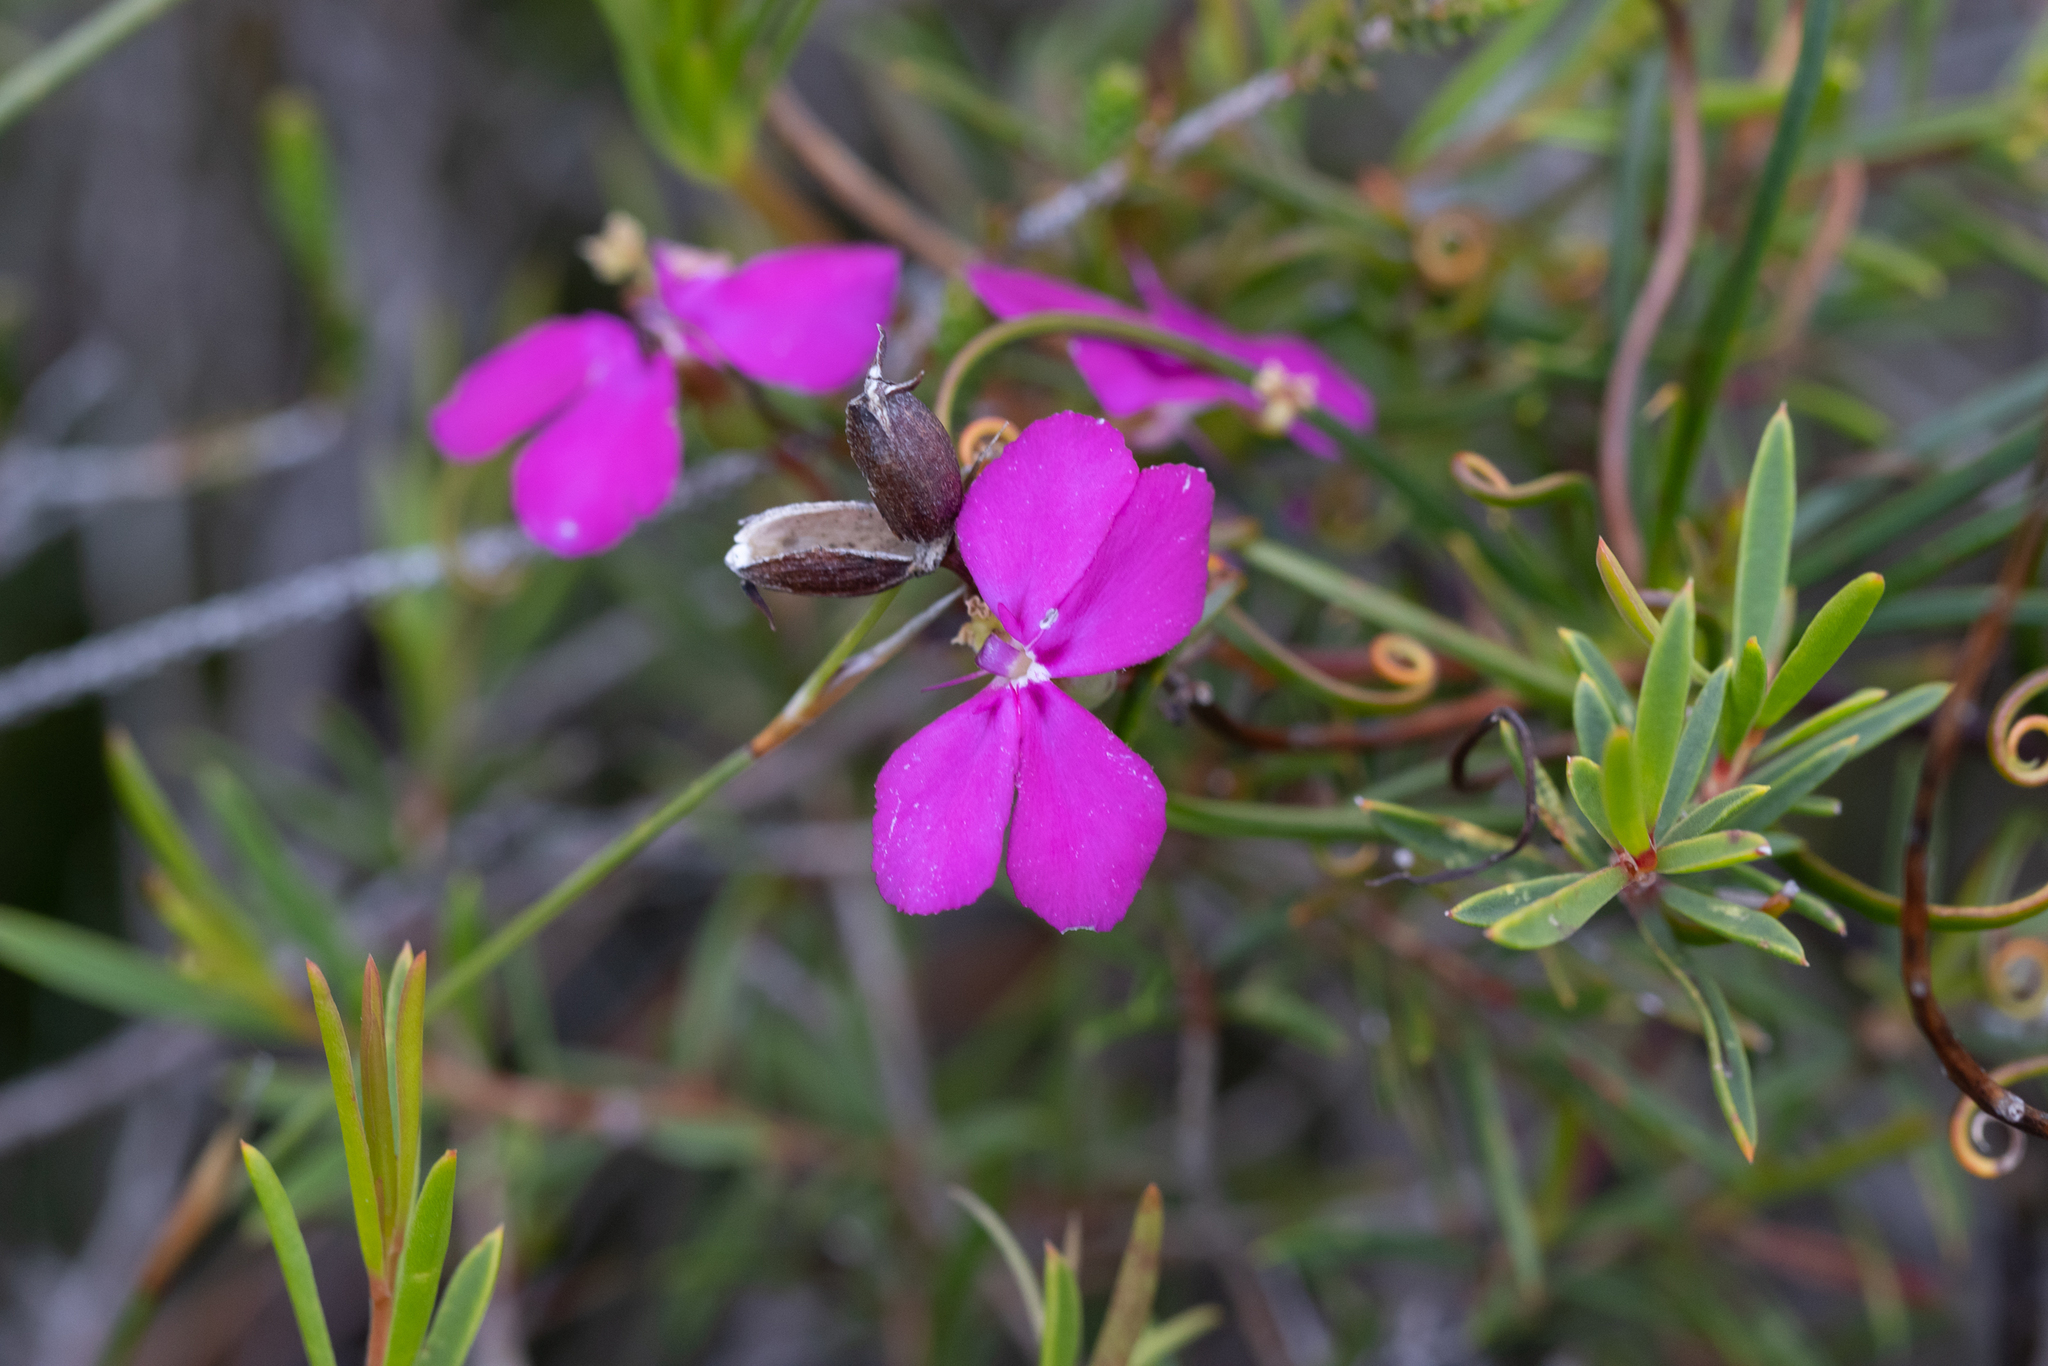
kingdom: Plantae
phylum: Tracheophyta
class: Magnoliopsida
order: Asterales
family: Stylidiaceae
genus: Stylidium
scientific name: Stylidium scandens
